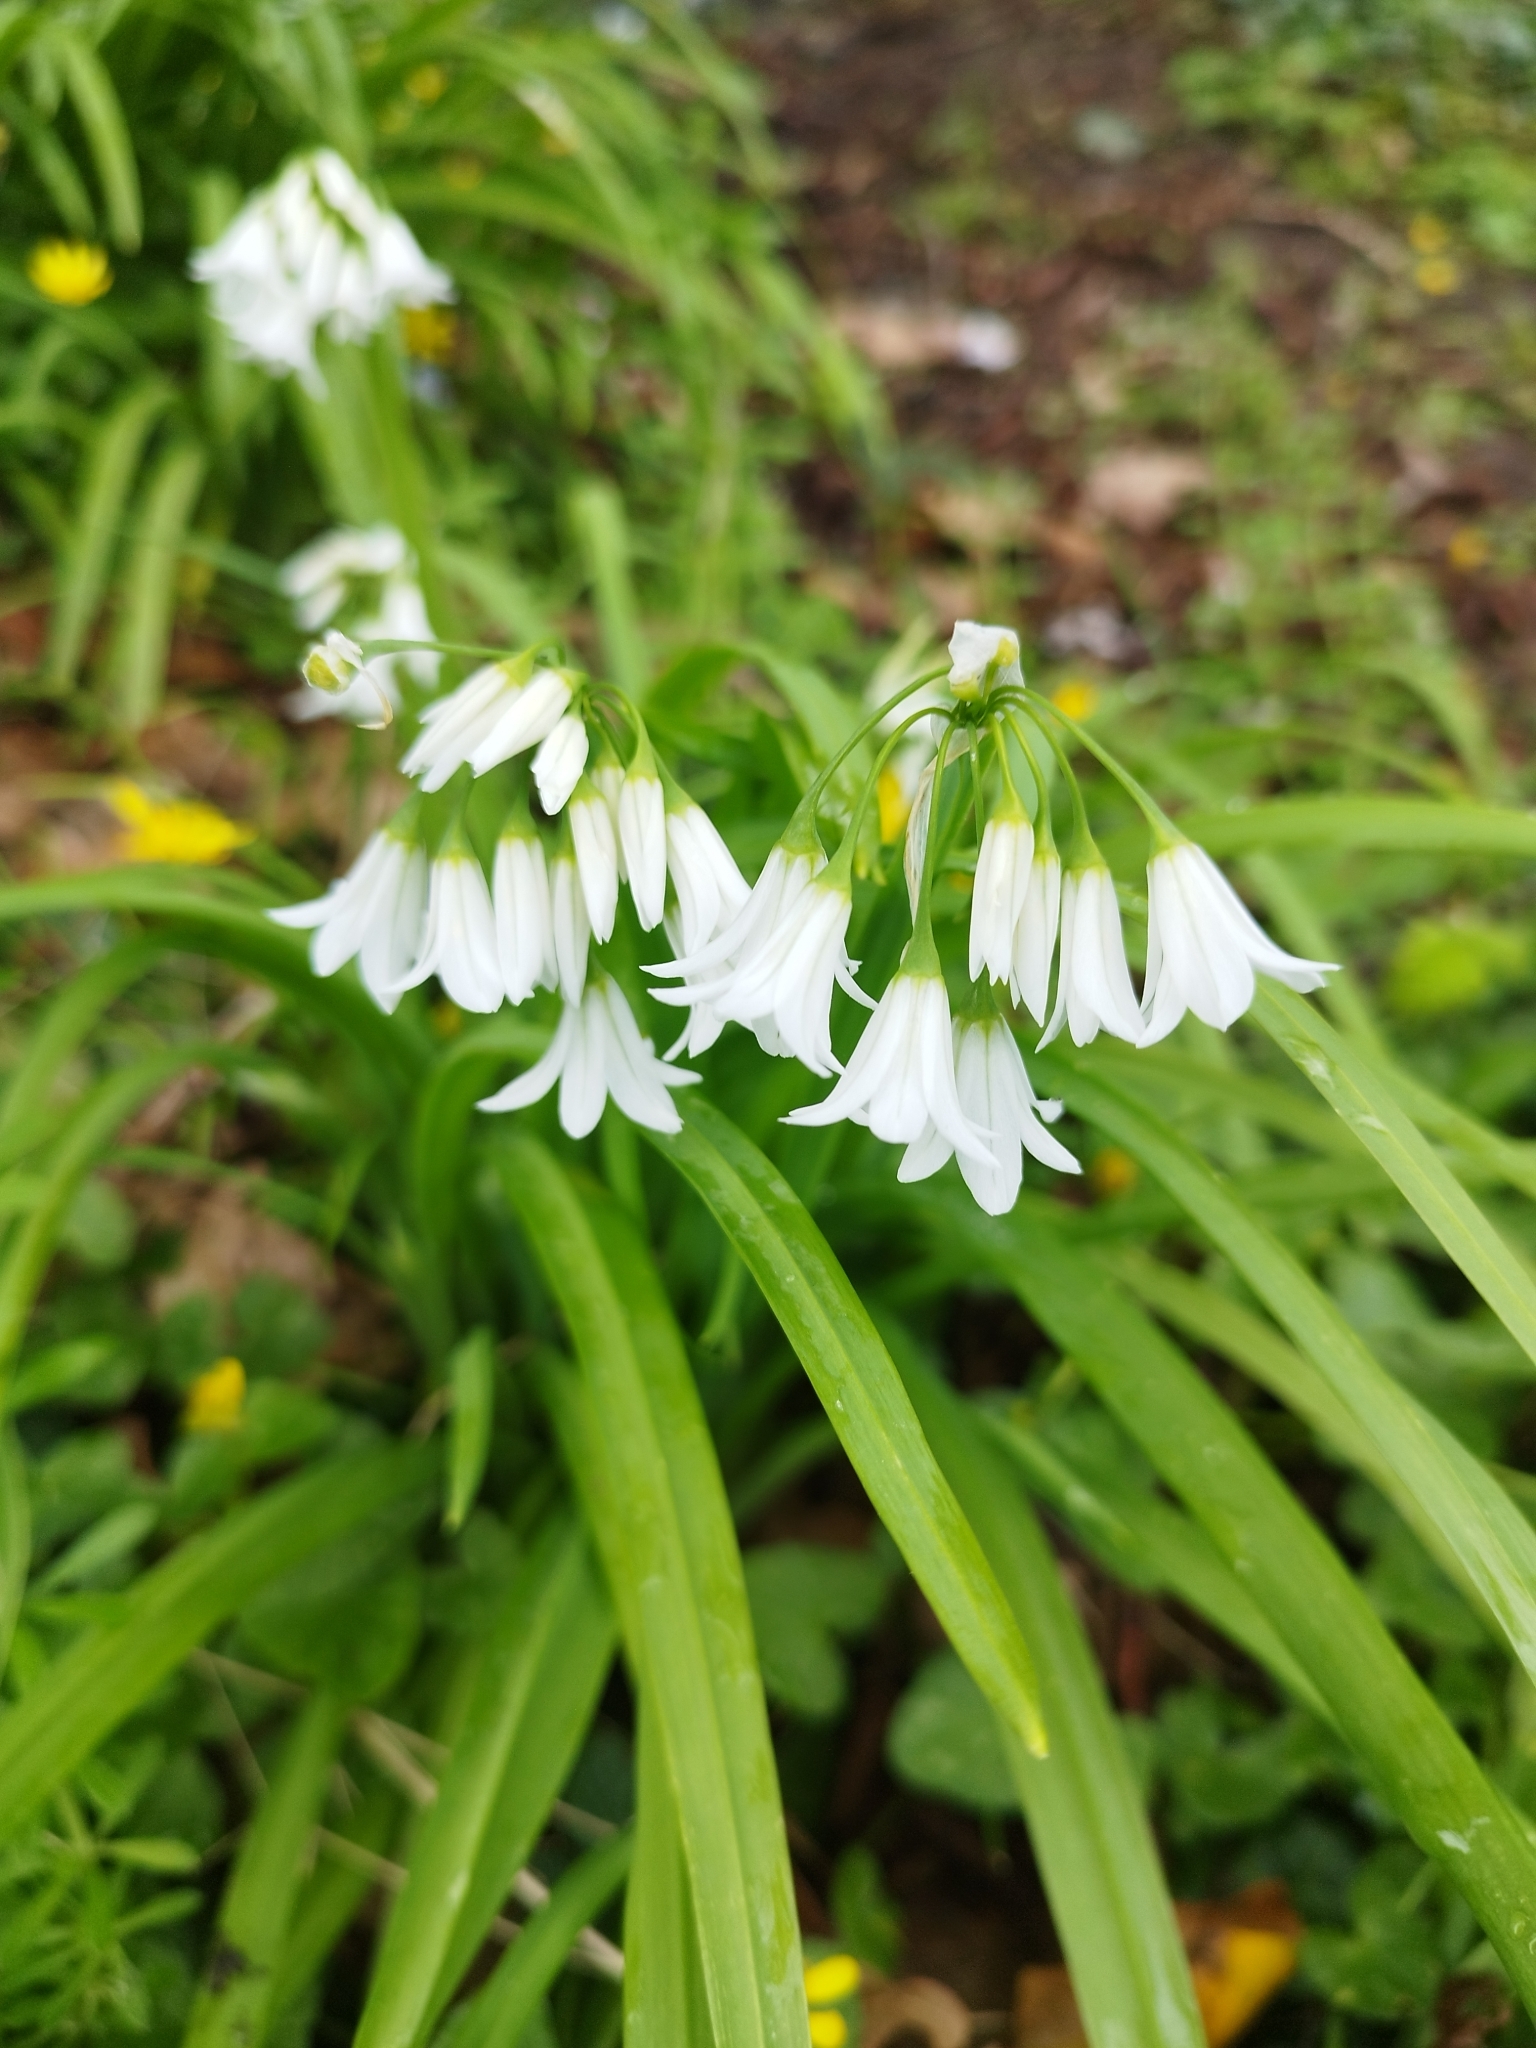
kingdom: Plantae
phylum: Tracheophyta
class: Liliopsida
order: Asparagales
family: Amaryllidaceae
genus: Allium
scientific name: Allium triquetrum
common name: Three-cornered garlic
